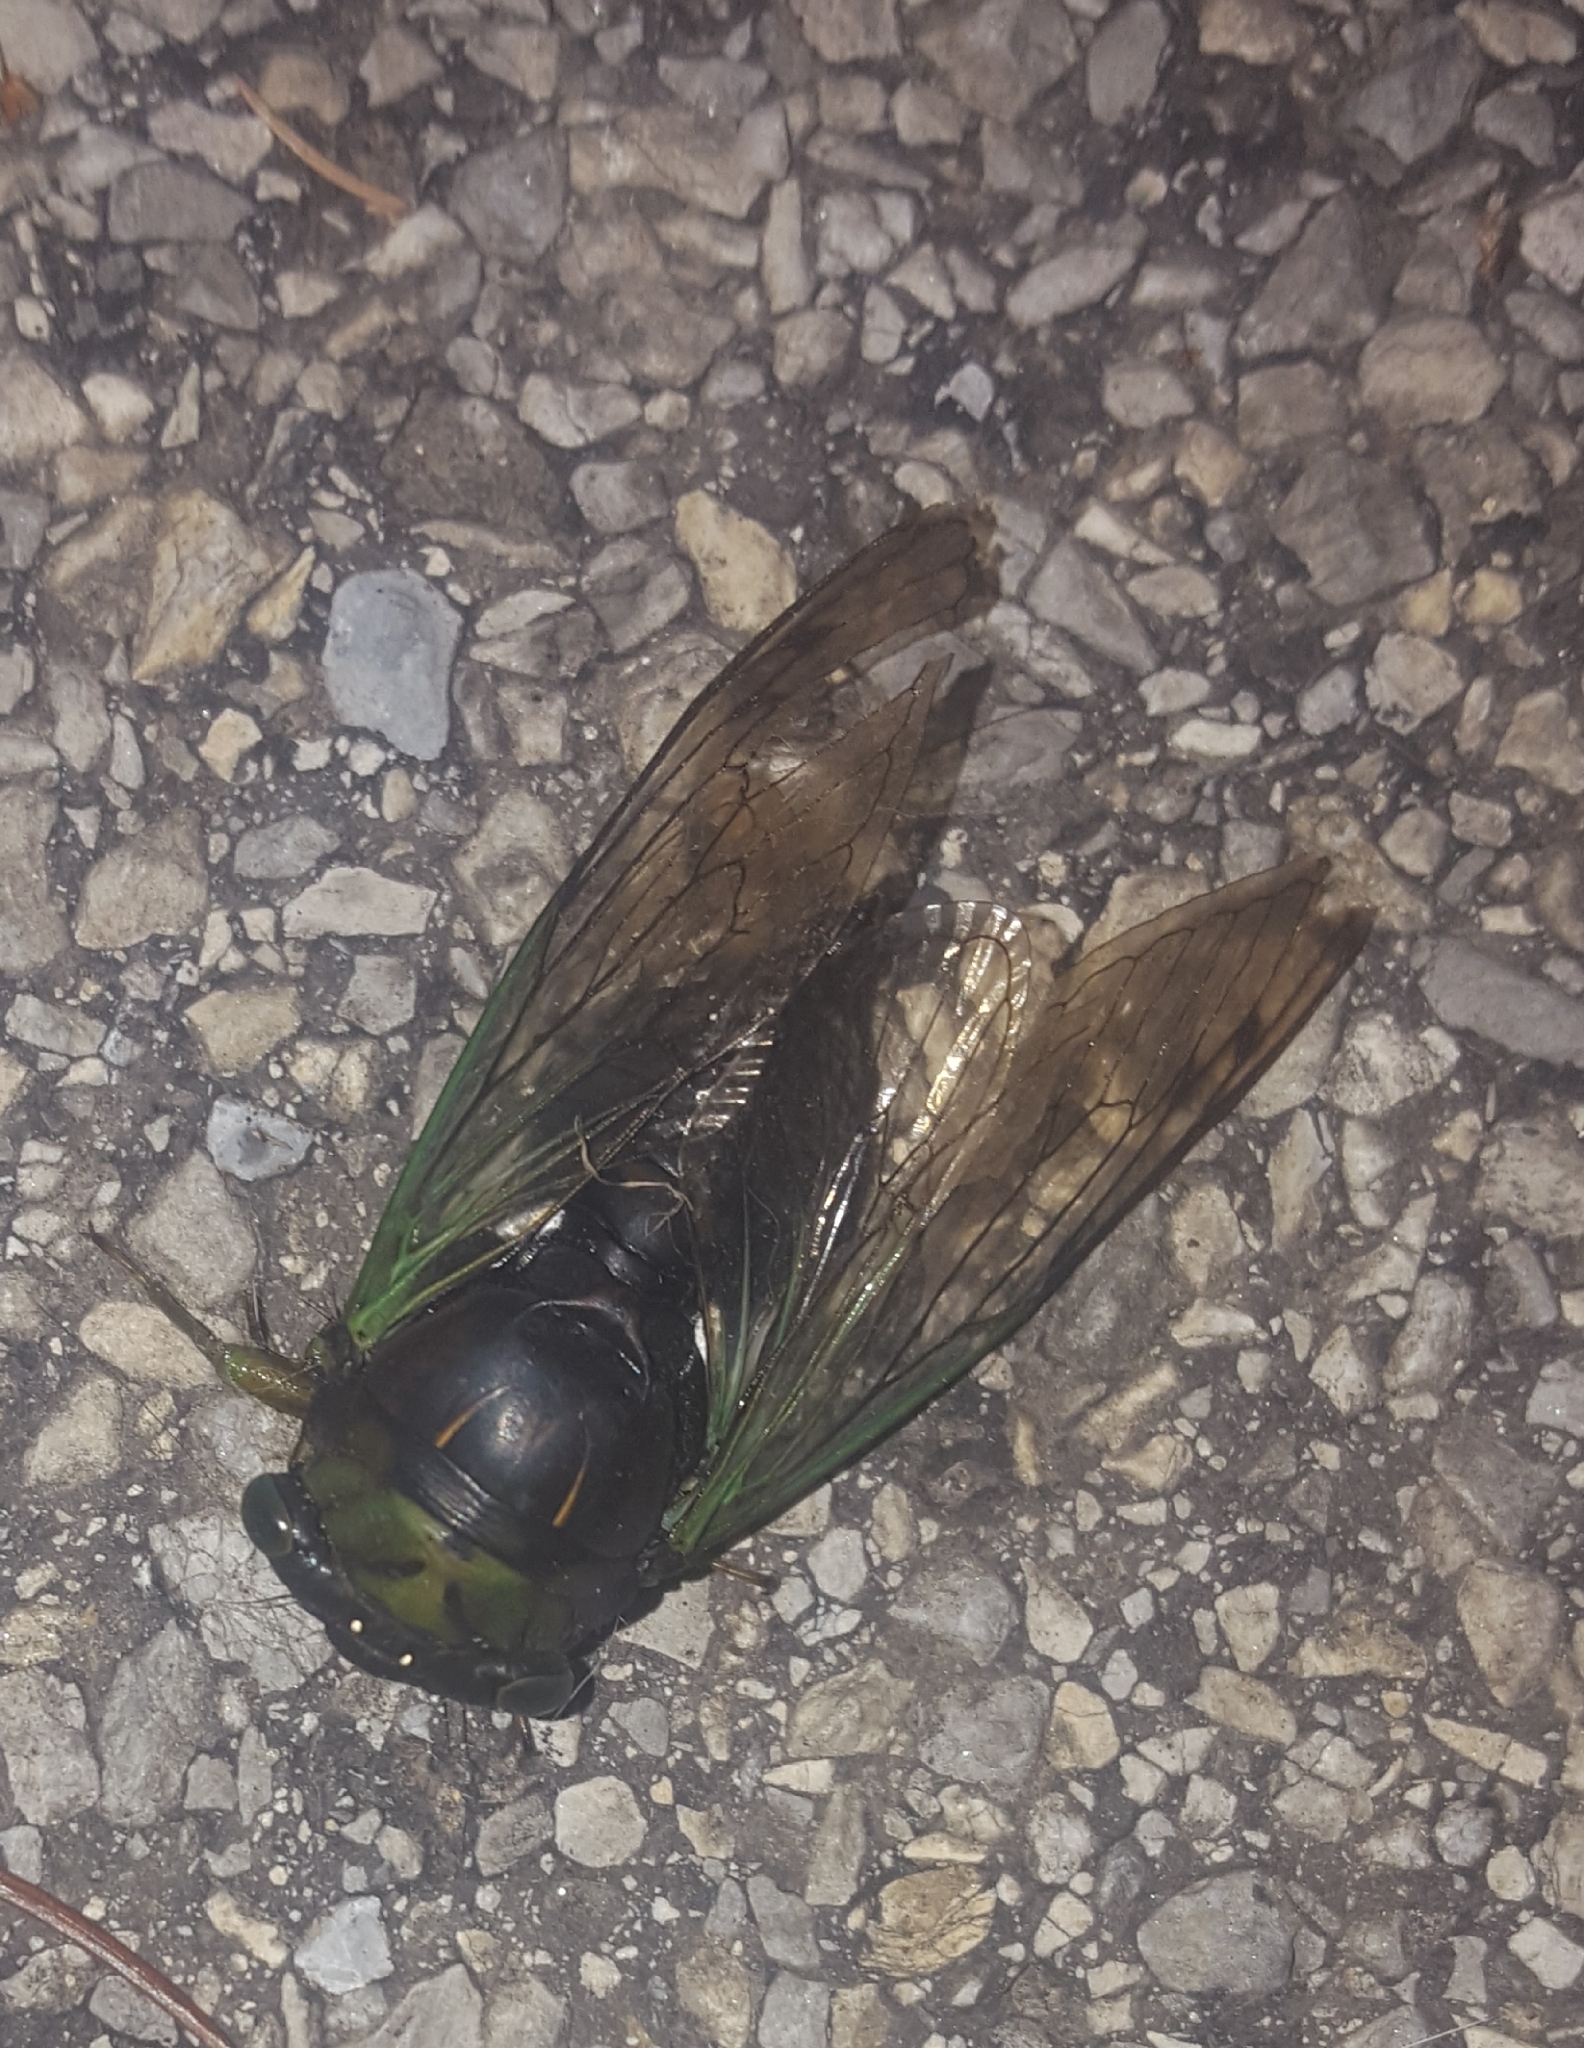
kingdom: Animalia
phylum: Arthropoda
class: Insecta
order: Hemiptera
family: Cicadidae
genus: Neotibicen
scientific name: Neotibicen tibicen
